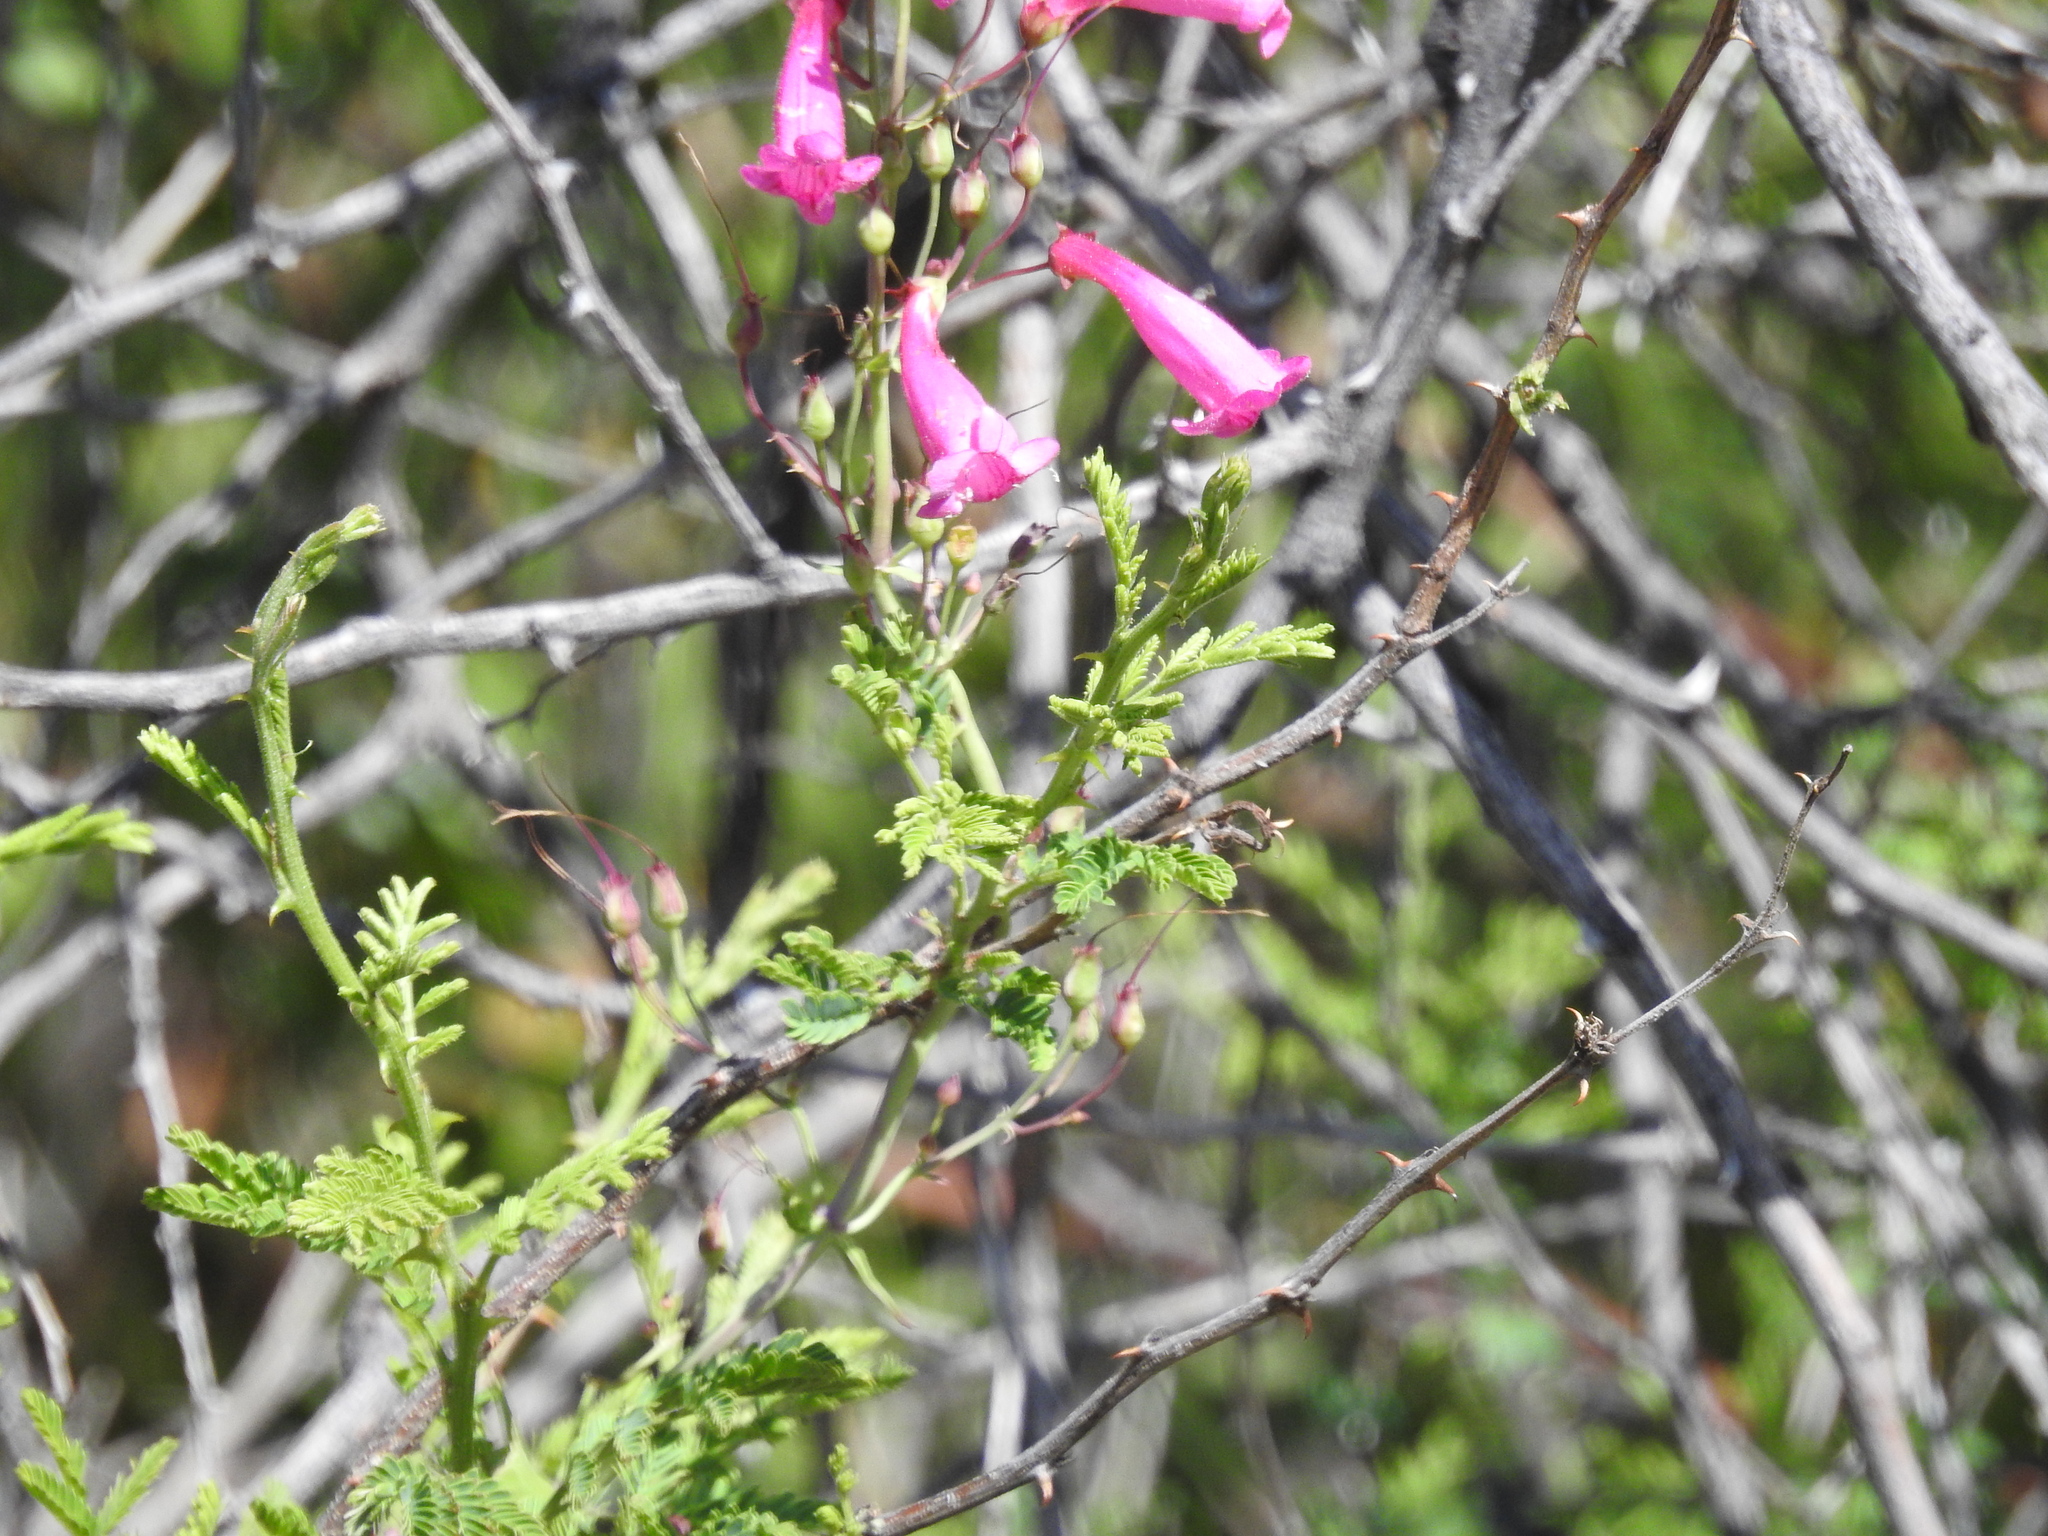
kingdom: Plantae
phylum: Tracheophyta
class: Magnoliopsida
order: Lamiales
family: Plantaginaceae
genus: Penstemon
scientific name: Penstemon pseudospectabilis
